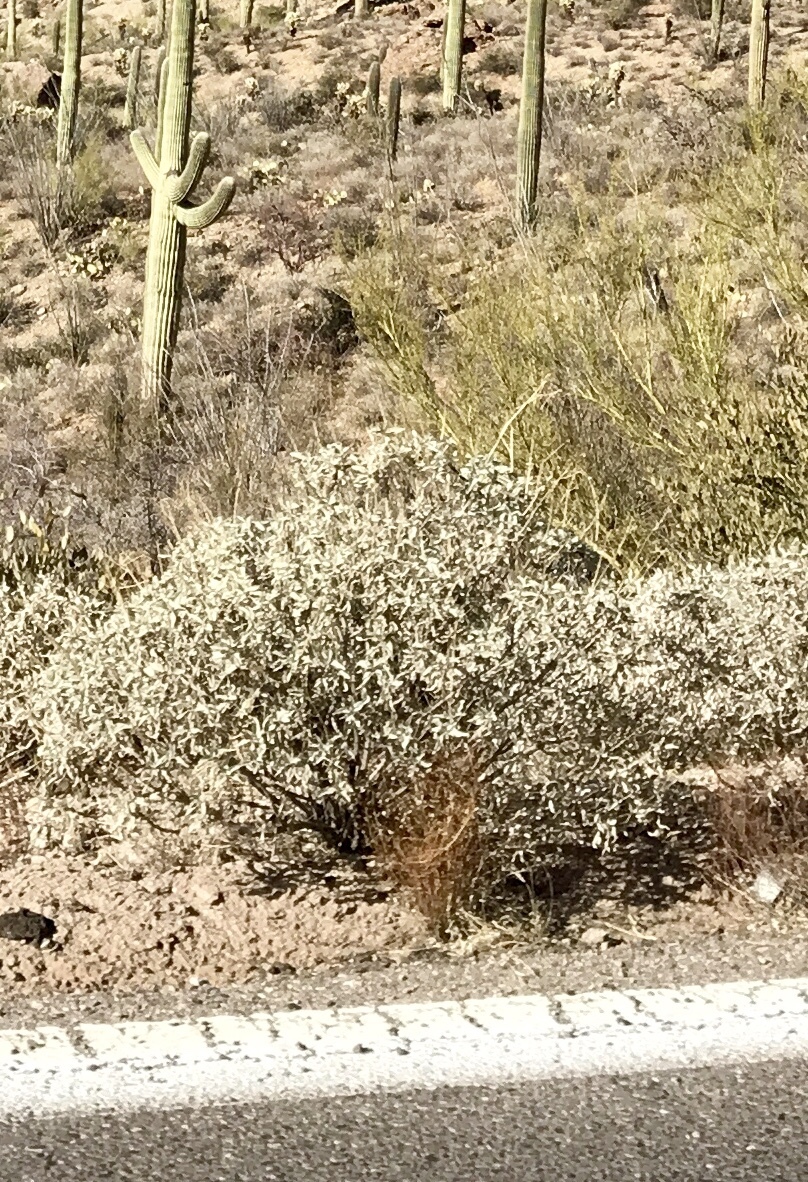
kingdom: Plantae
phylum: Tracheophyta
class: Magnoliopsida
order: Asterales
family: Asteraceae
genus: Encelia
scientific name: Encelia farinosa
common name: Brittlebush
